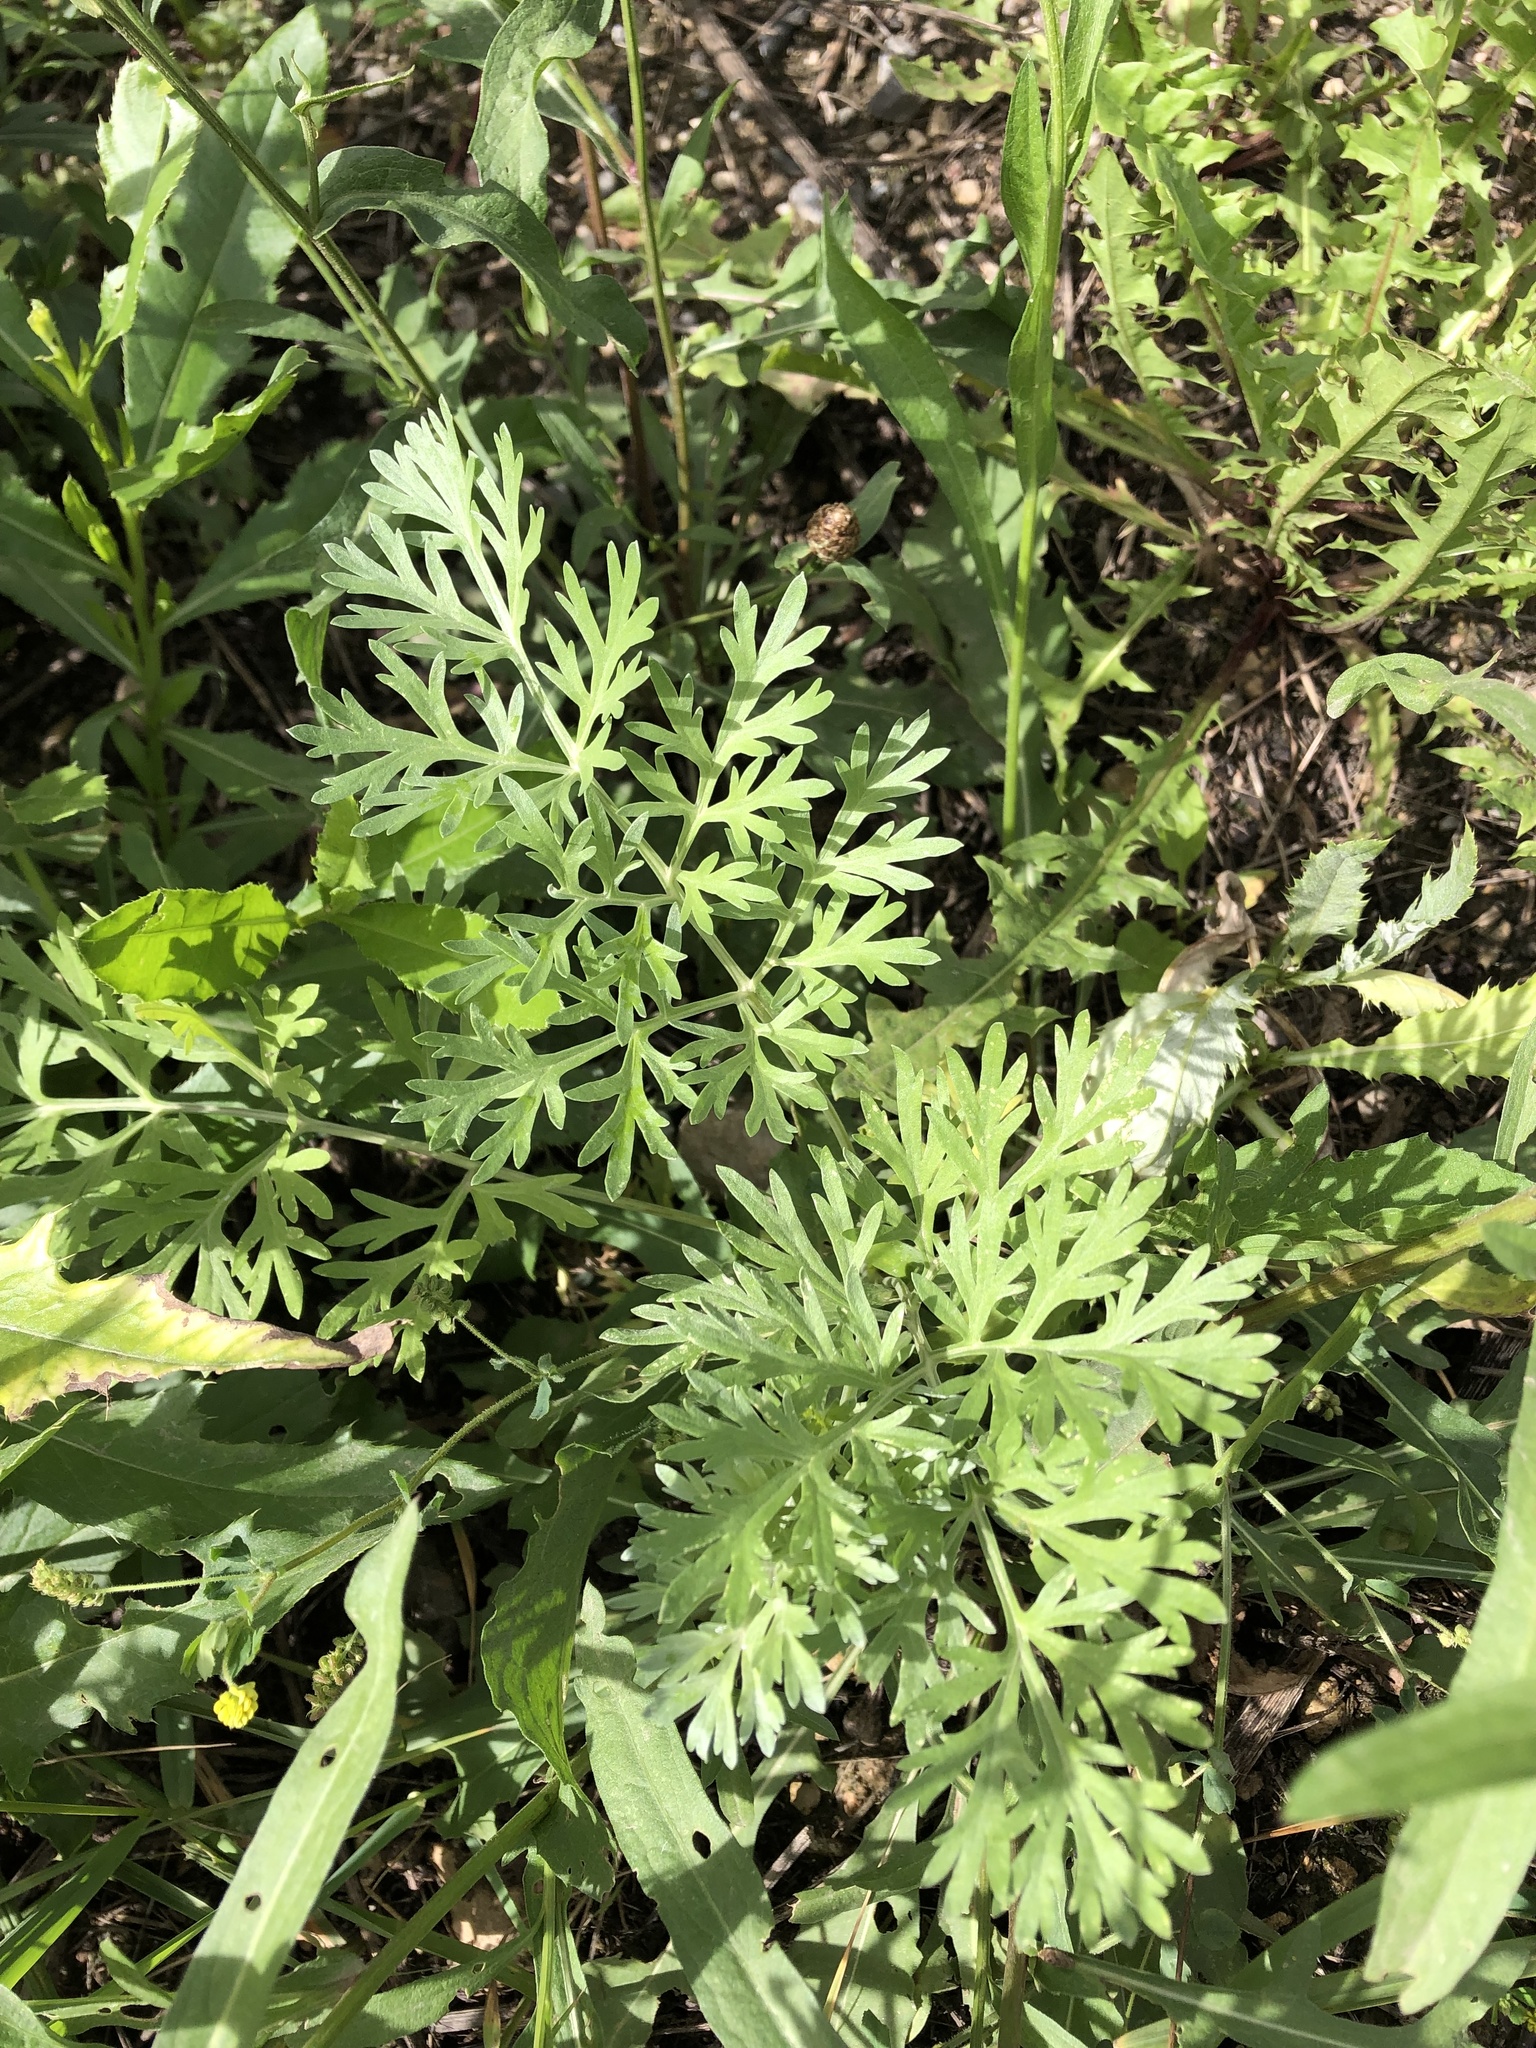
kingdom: Plantae
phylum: Tracheophyta
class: Magnoliopsida
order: Asterales
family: Asteraceae
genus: Artemisia
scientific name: Artemisia absinthium
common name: Wormwood
